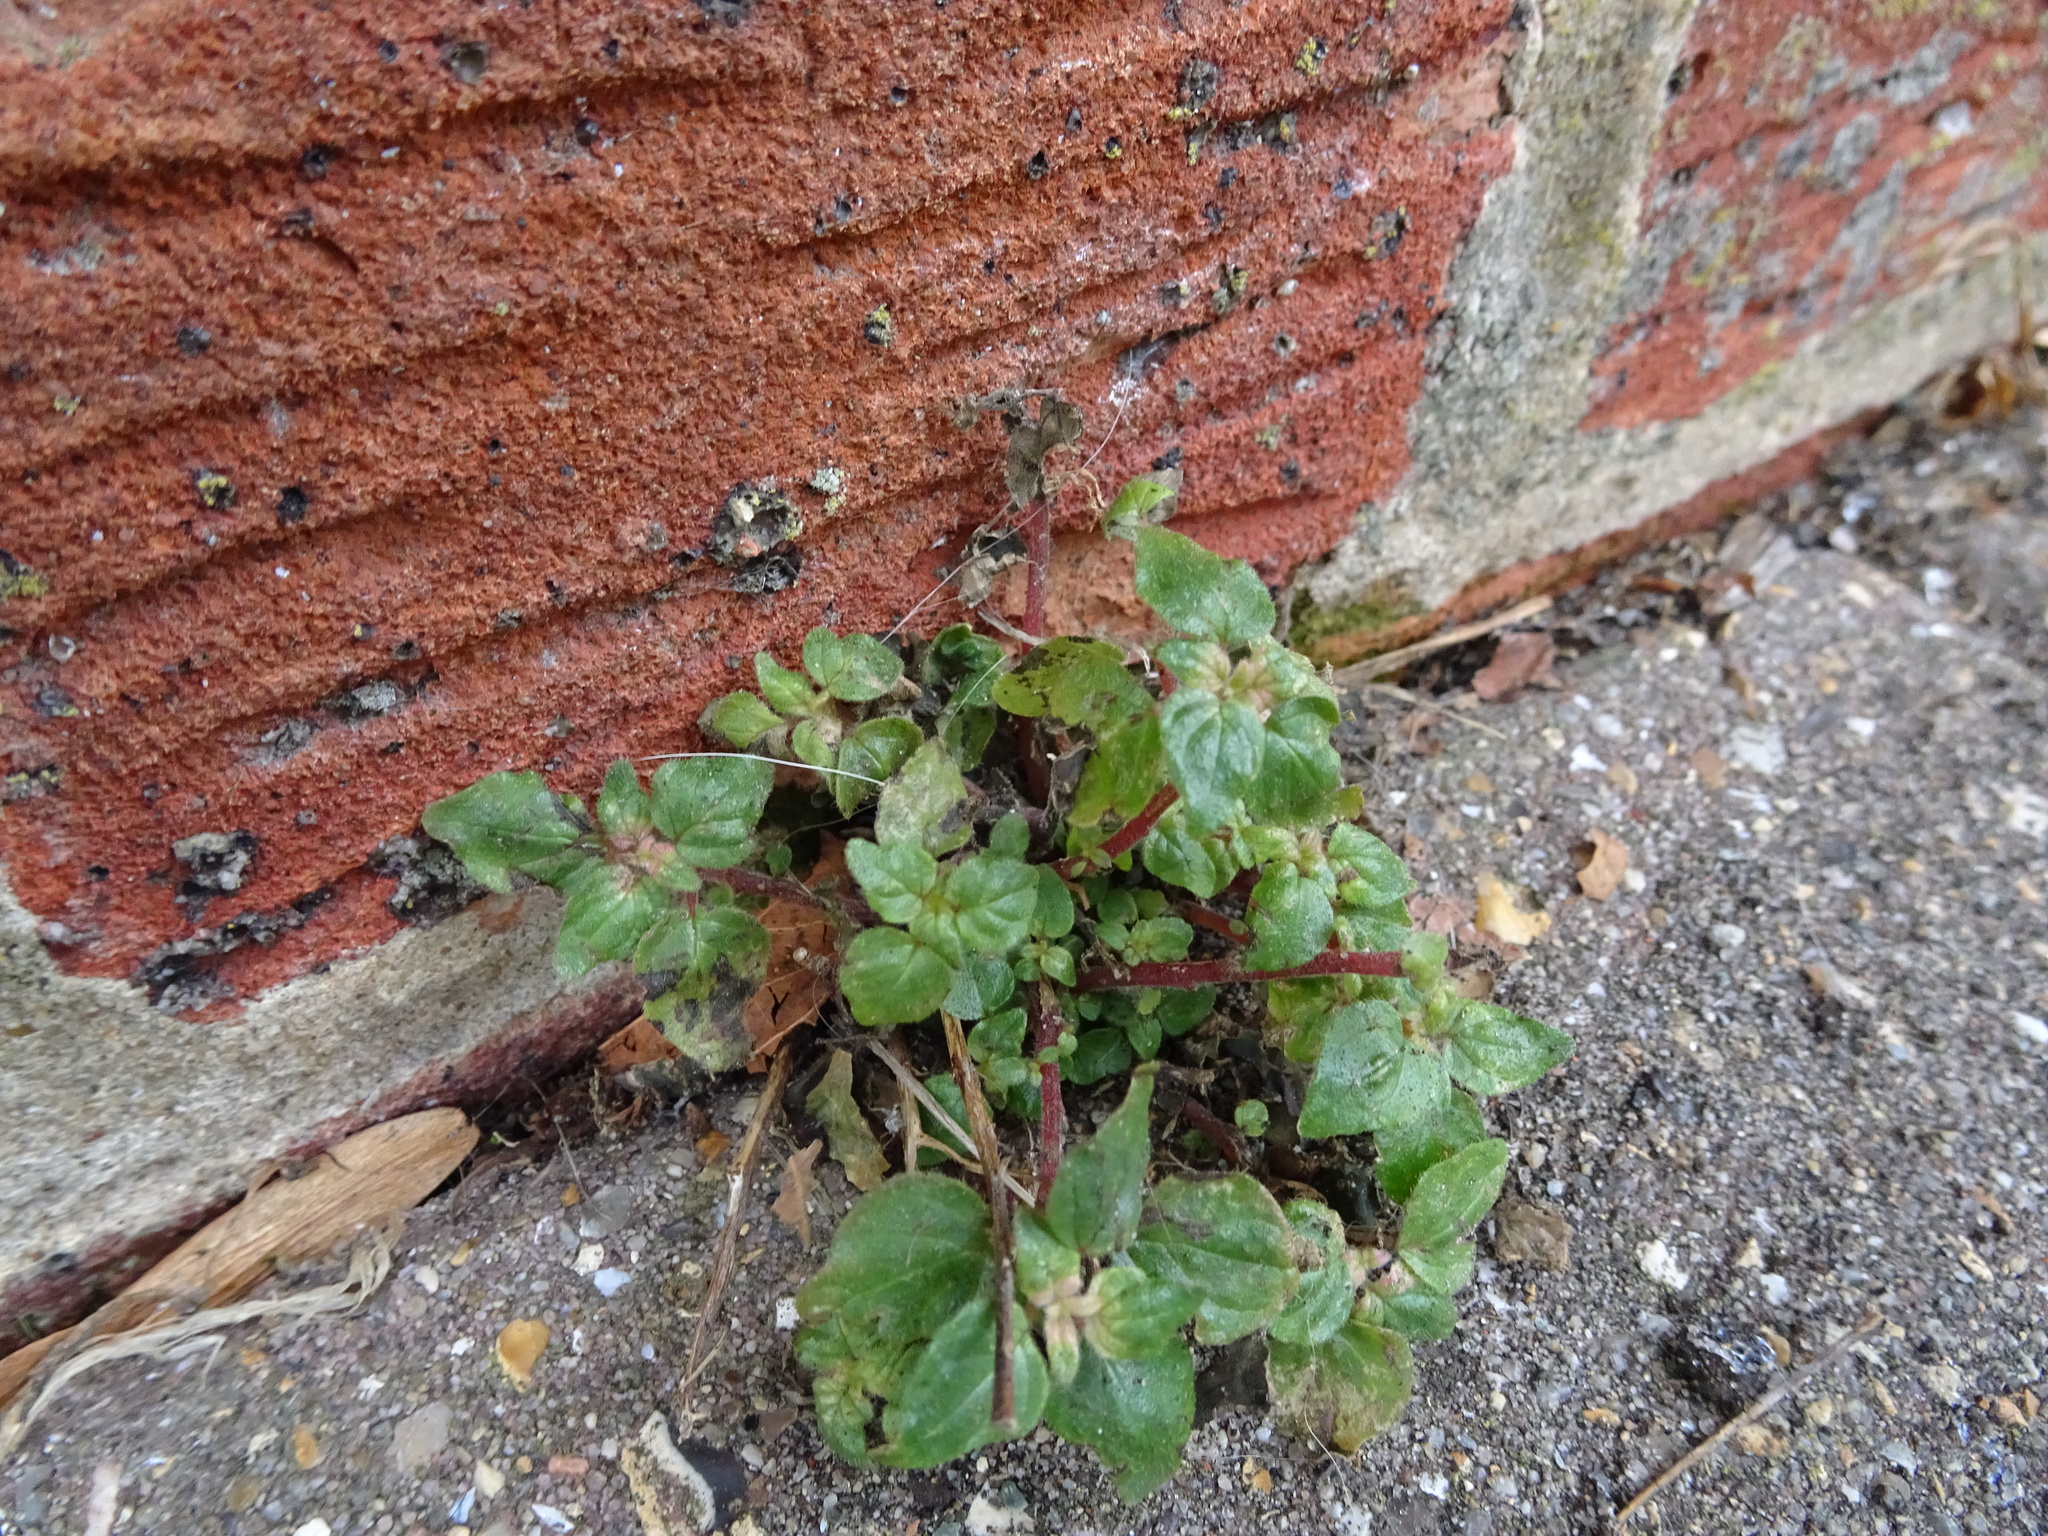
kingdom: Plantae
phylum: Tracheophyta
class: Magnoliopsida
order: Rosales
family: Urticaceae
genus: Parietaria
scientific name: Parietaria judaica
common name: Pellitory-of-the-wall
